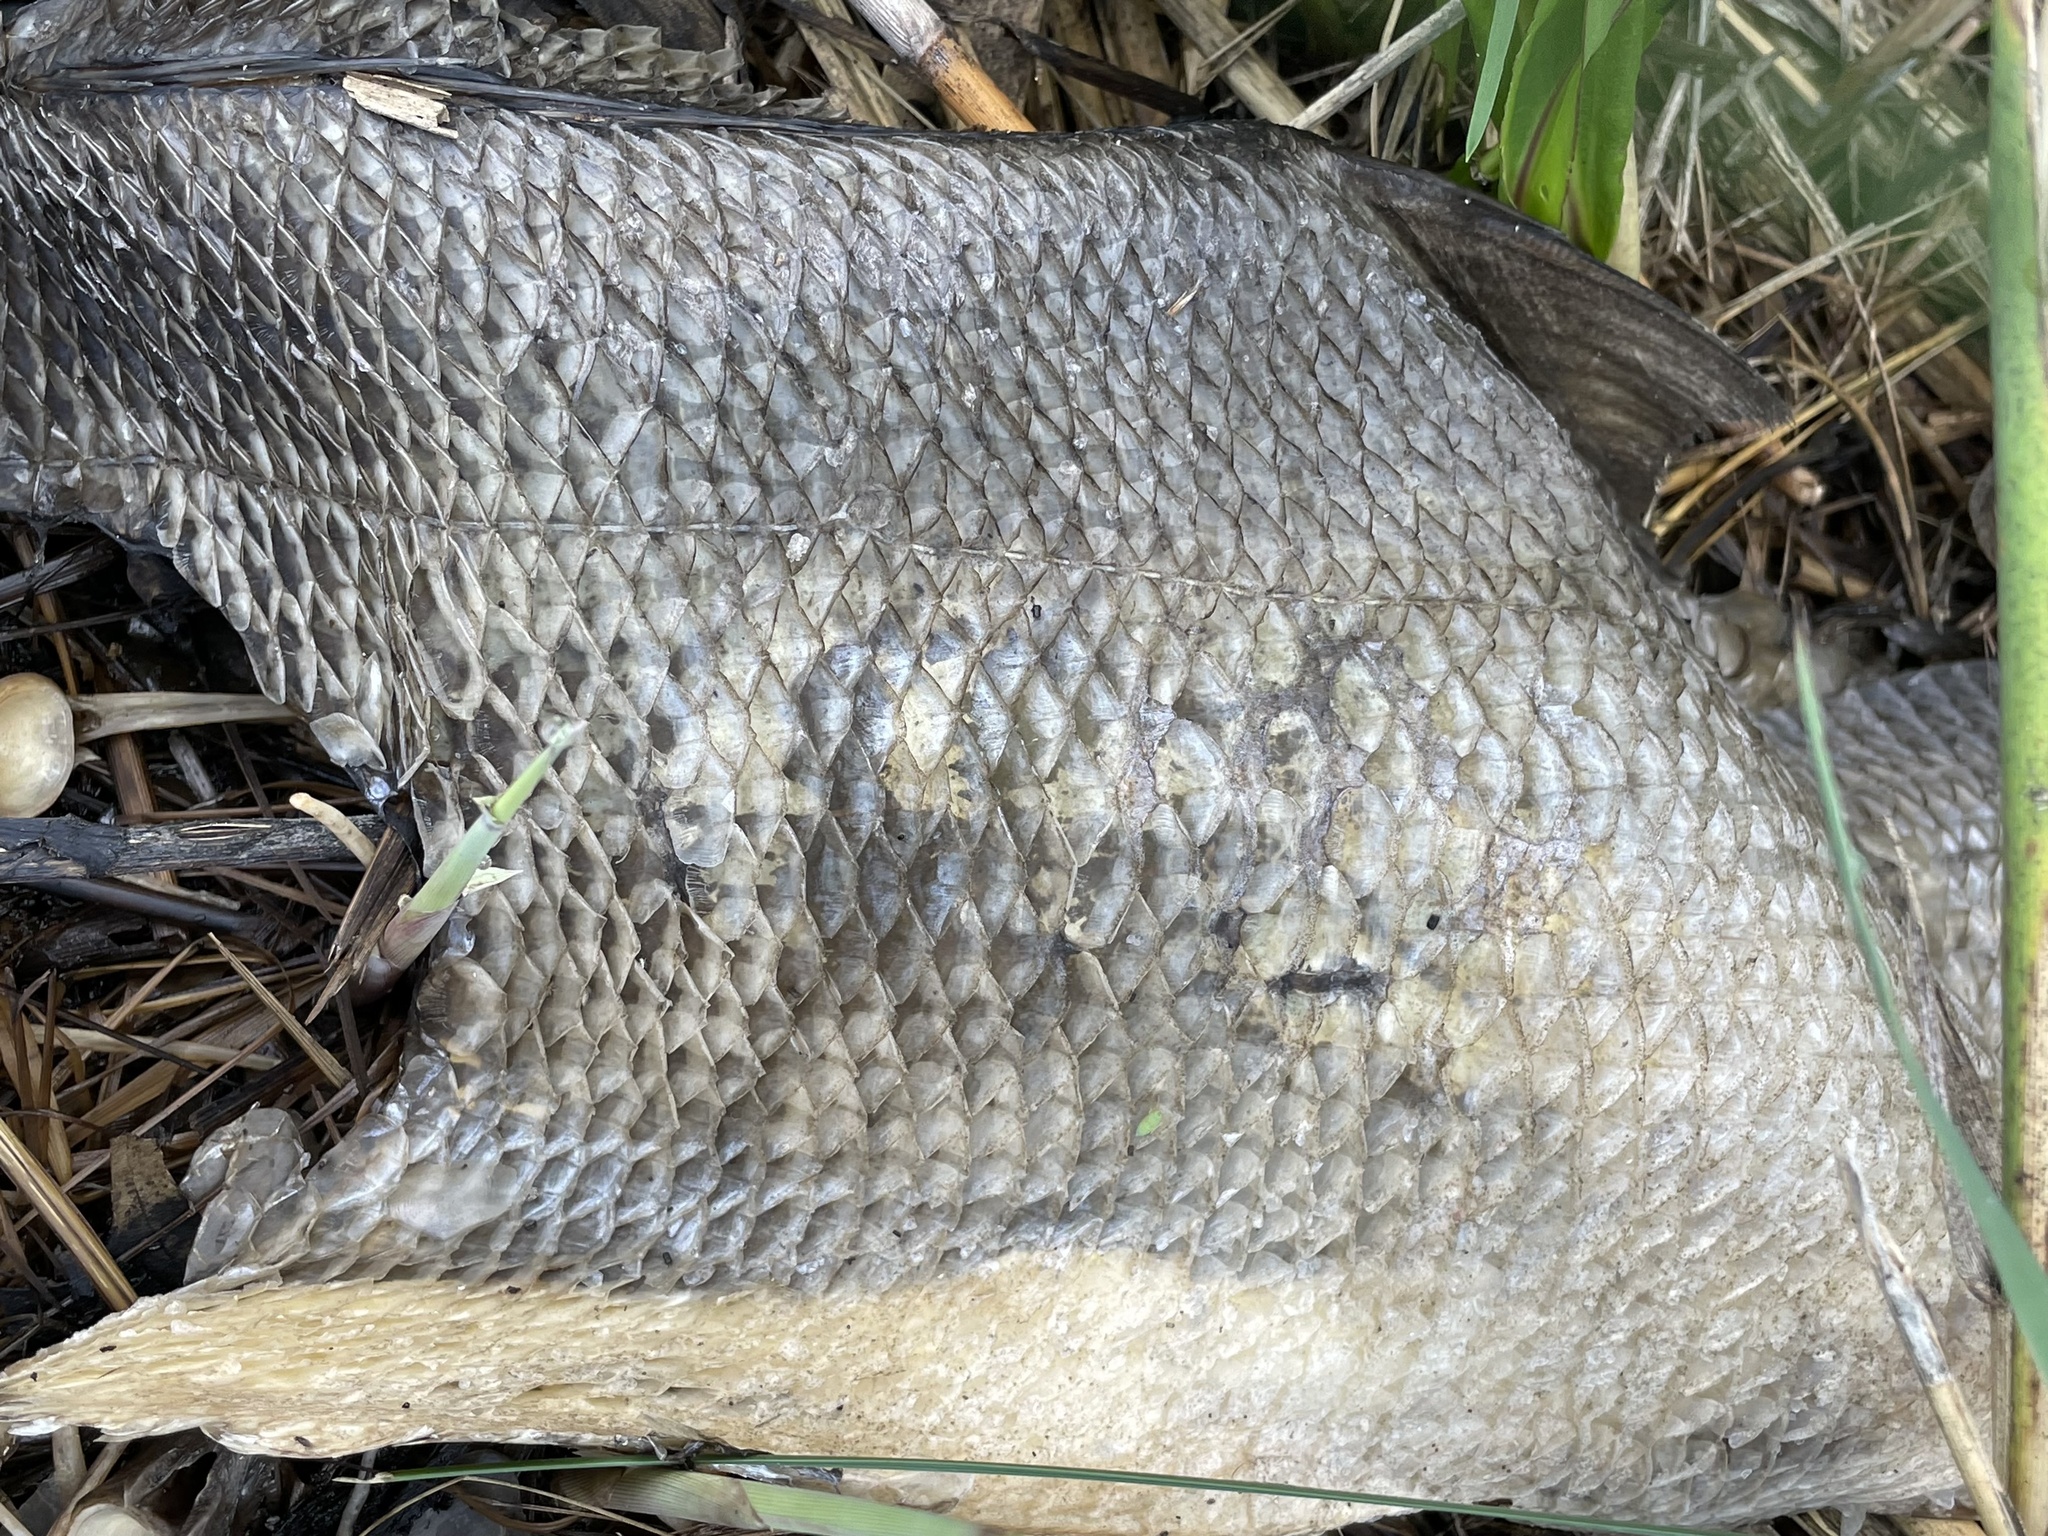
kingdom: Animalia
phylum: Chordata
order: Perciformes
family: Pomatomidae
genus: Pomatomus
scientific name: Pomatomus saltatrix
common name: Bluefish
